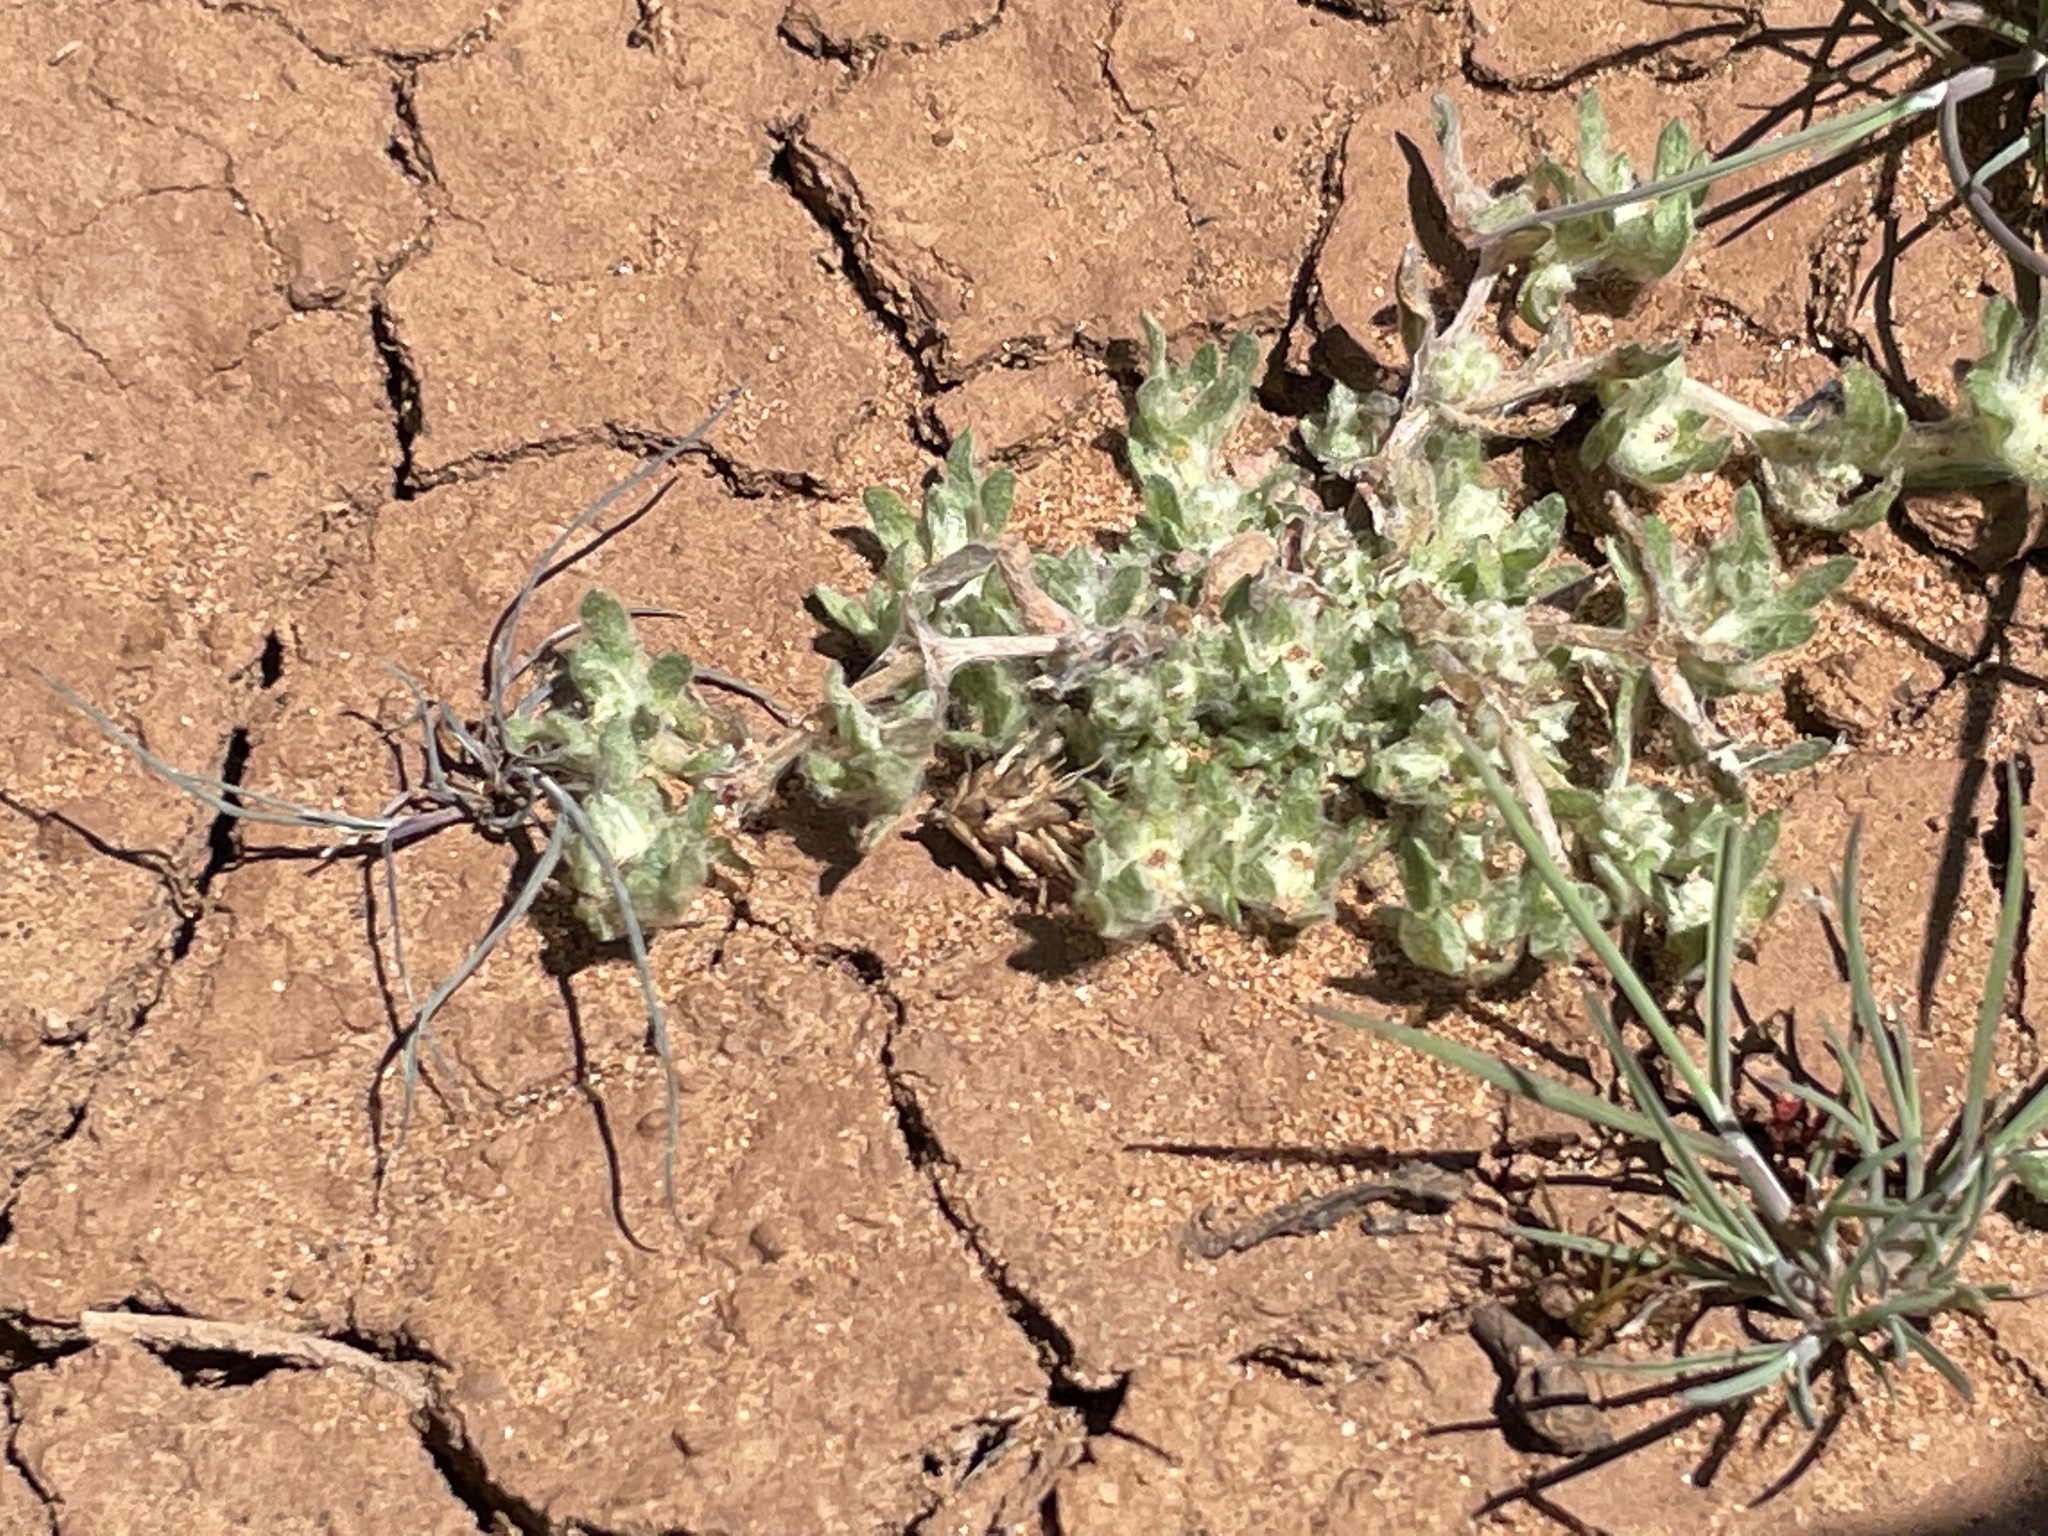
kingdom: Plantae
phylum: Tracheophyta
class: Magnoliopsida
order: Asterales
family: Asteraceae
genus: Psilocarphus
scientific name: Psilocarphus brevissimus
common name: Dwarf woollyheads
